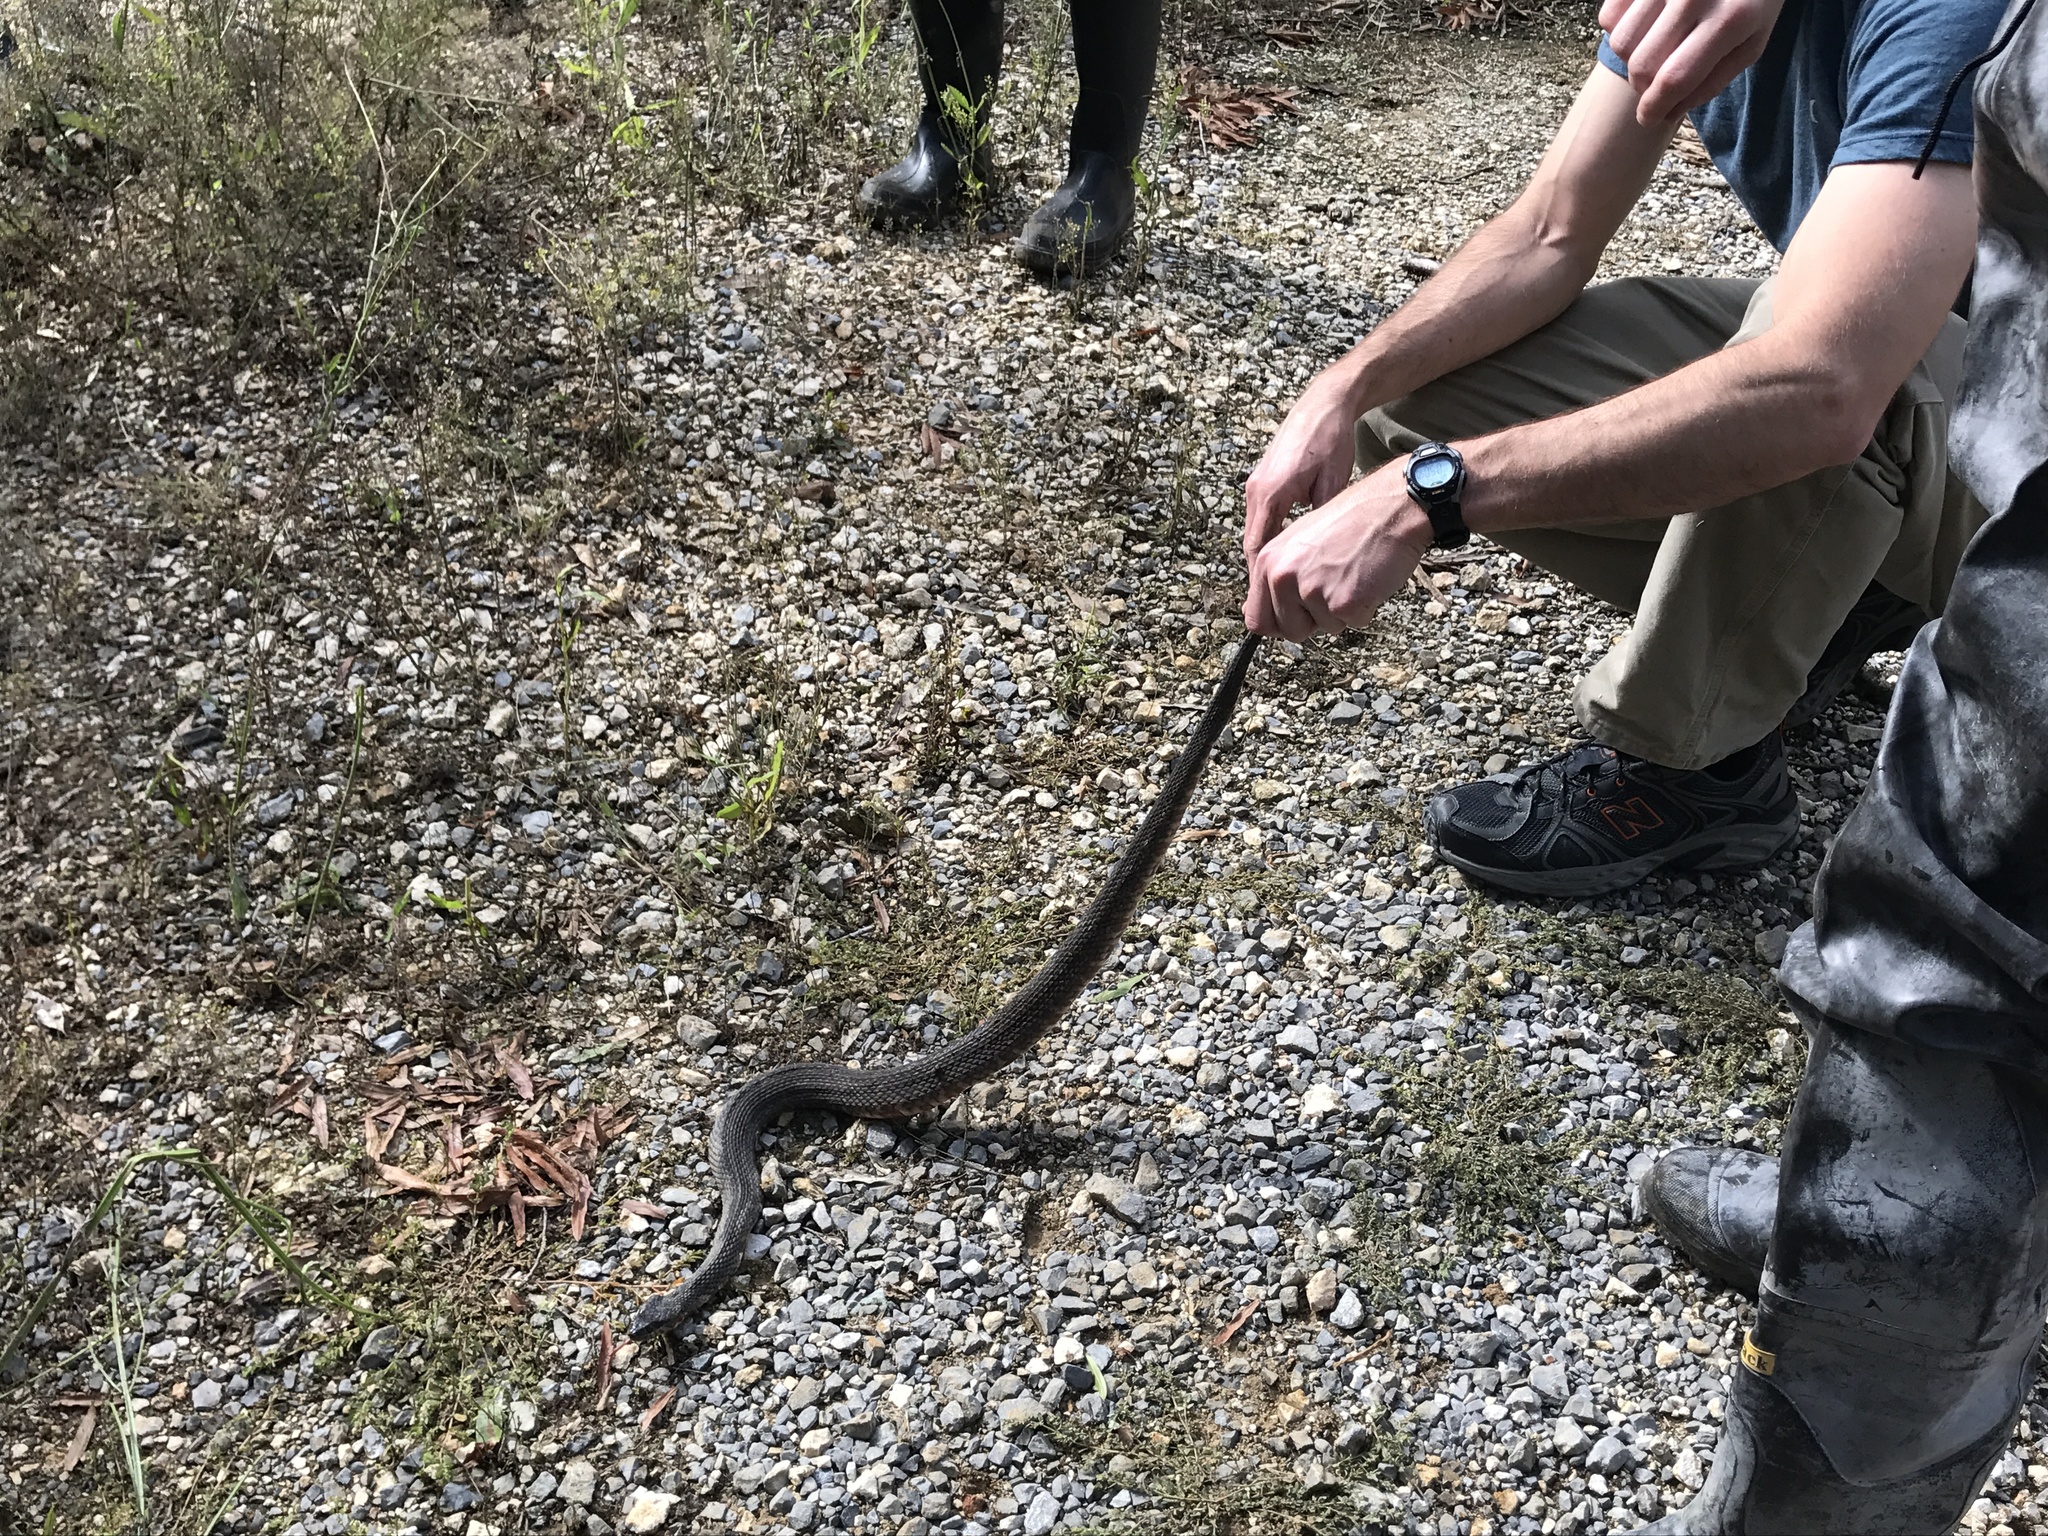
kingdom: Animalia
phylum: Chordata
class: Squamata
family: Colubridae
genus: Nerodia
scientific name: Nerodia fasciata
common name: Southern water snake
